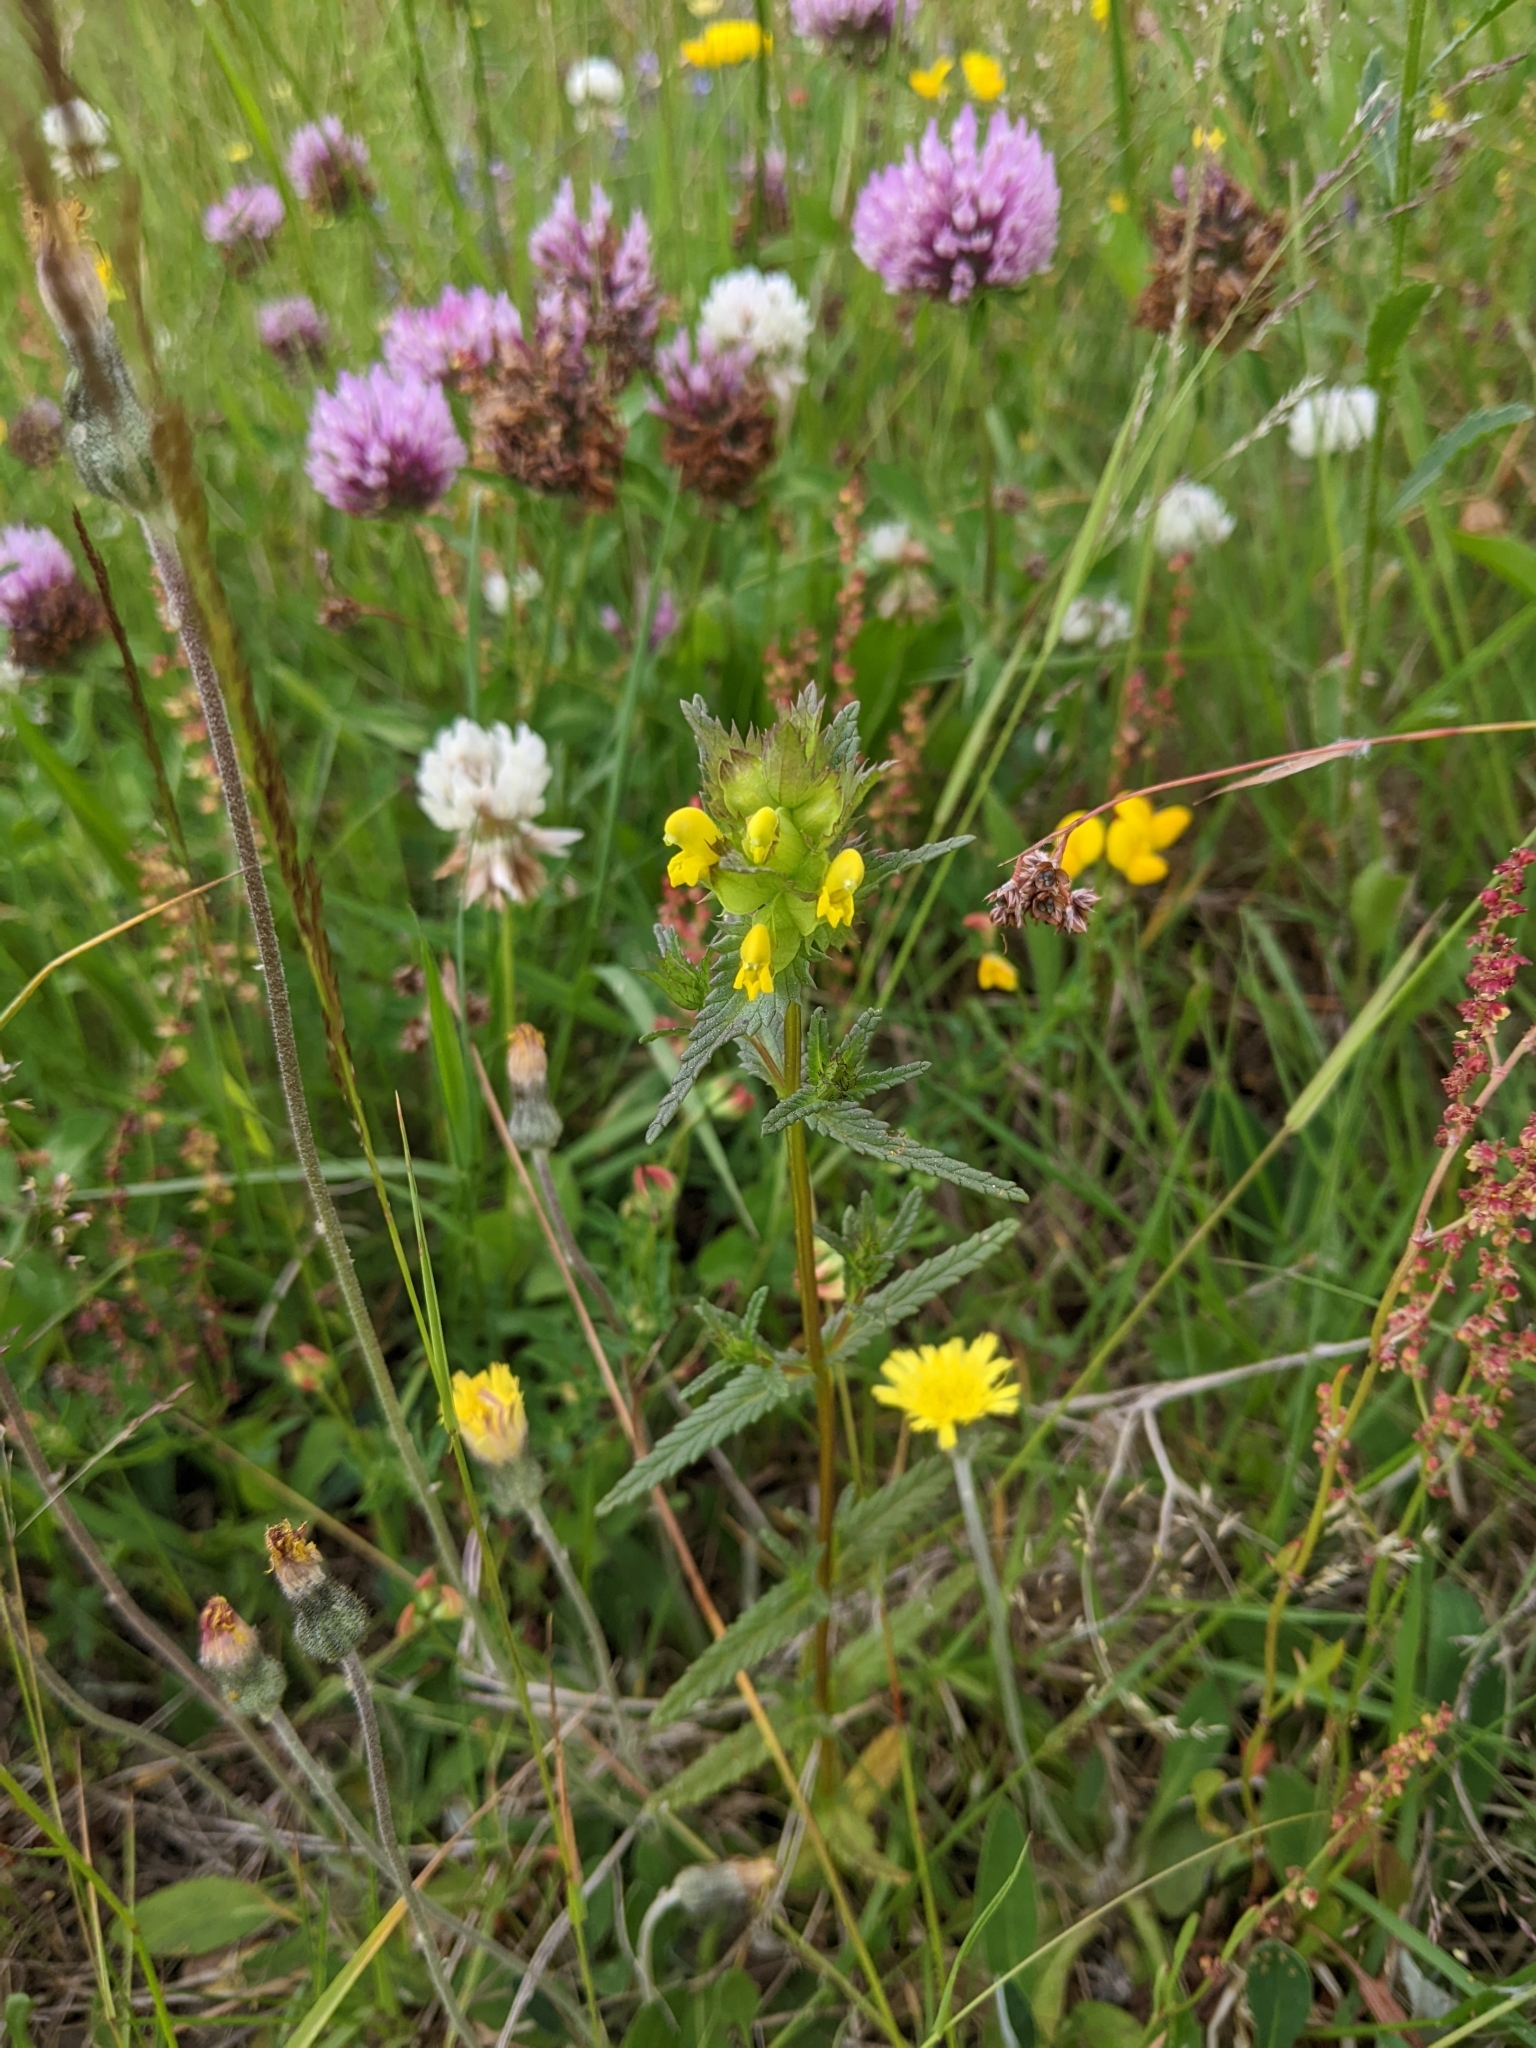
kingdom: Plantae
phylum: Tracheophyta
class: Magnoliopsida
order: Lamiales
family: Orobanchaceae
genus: Rhinanthus
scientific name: Rhinanthus minor
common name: Yellow-rattle
